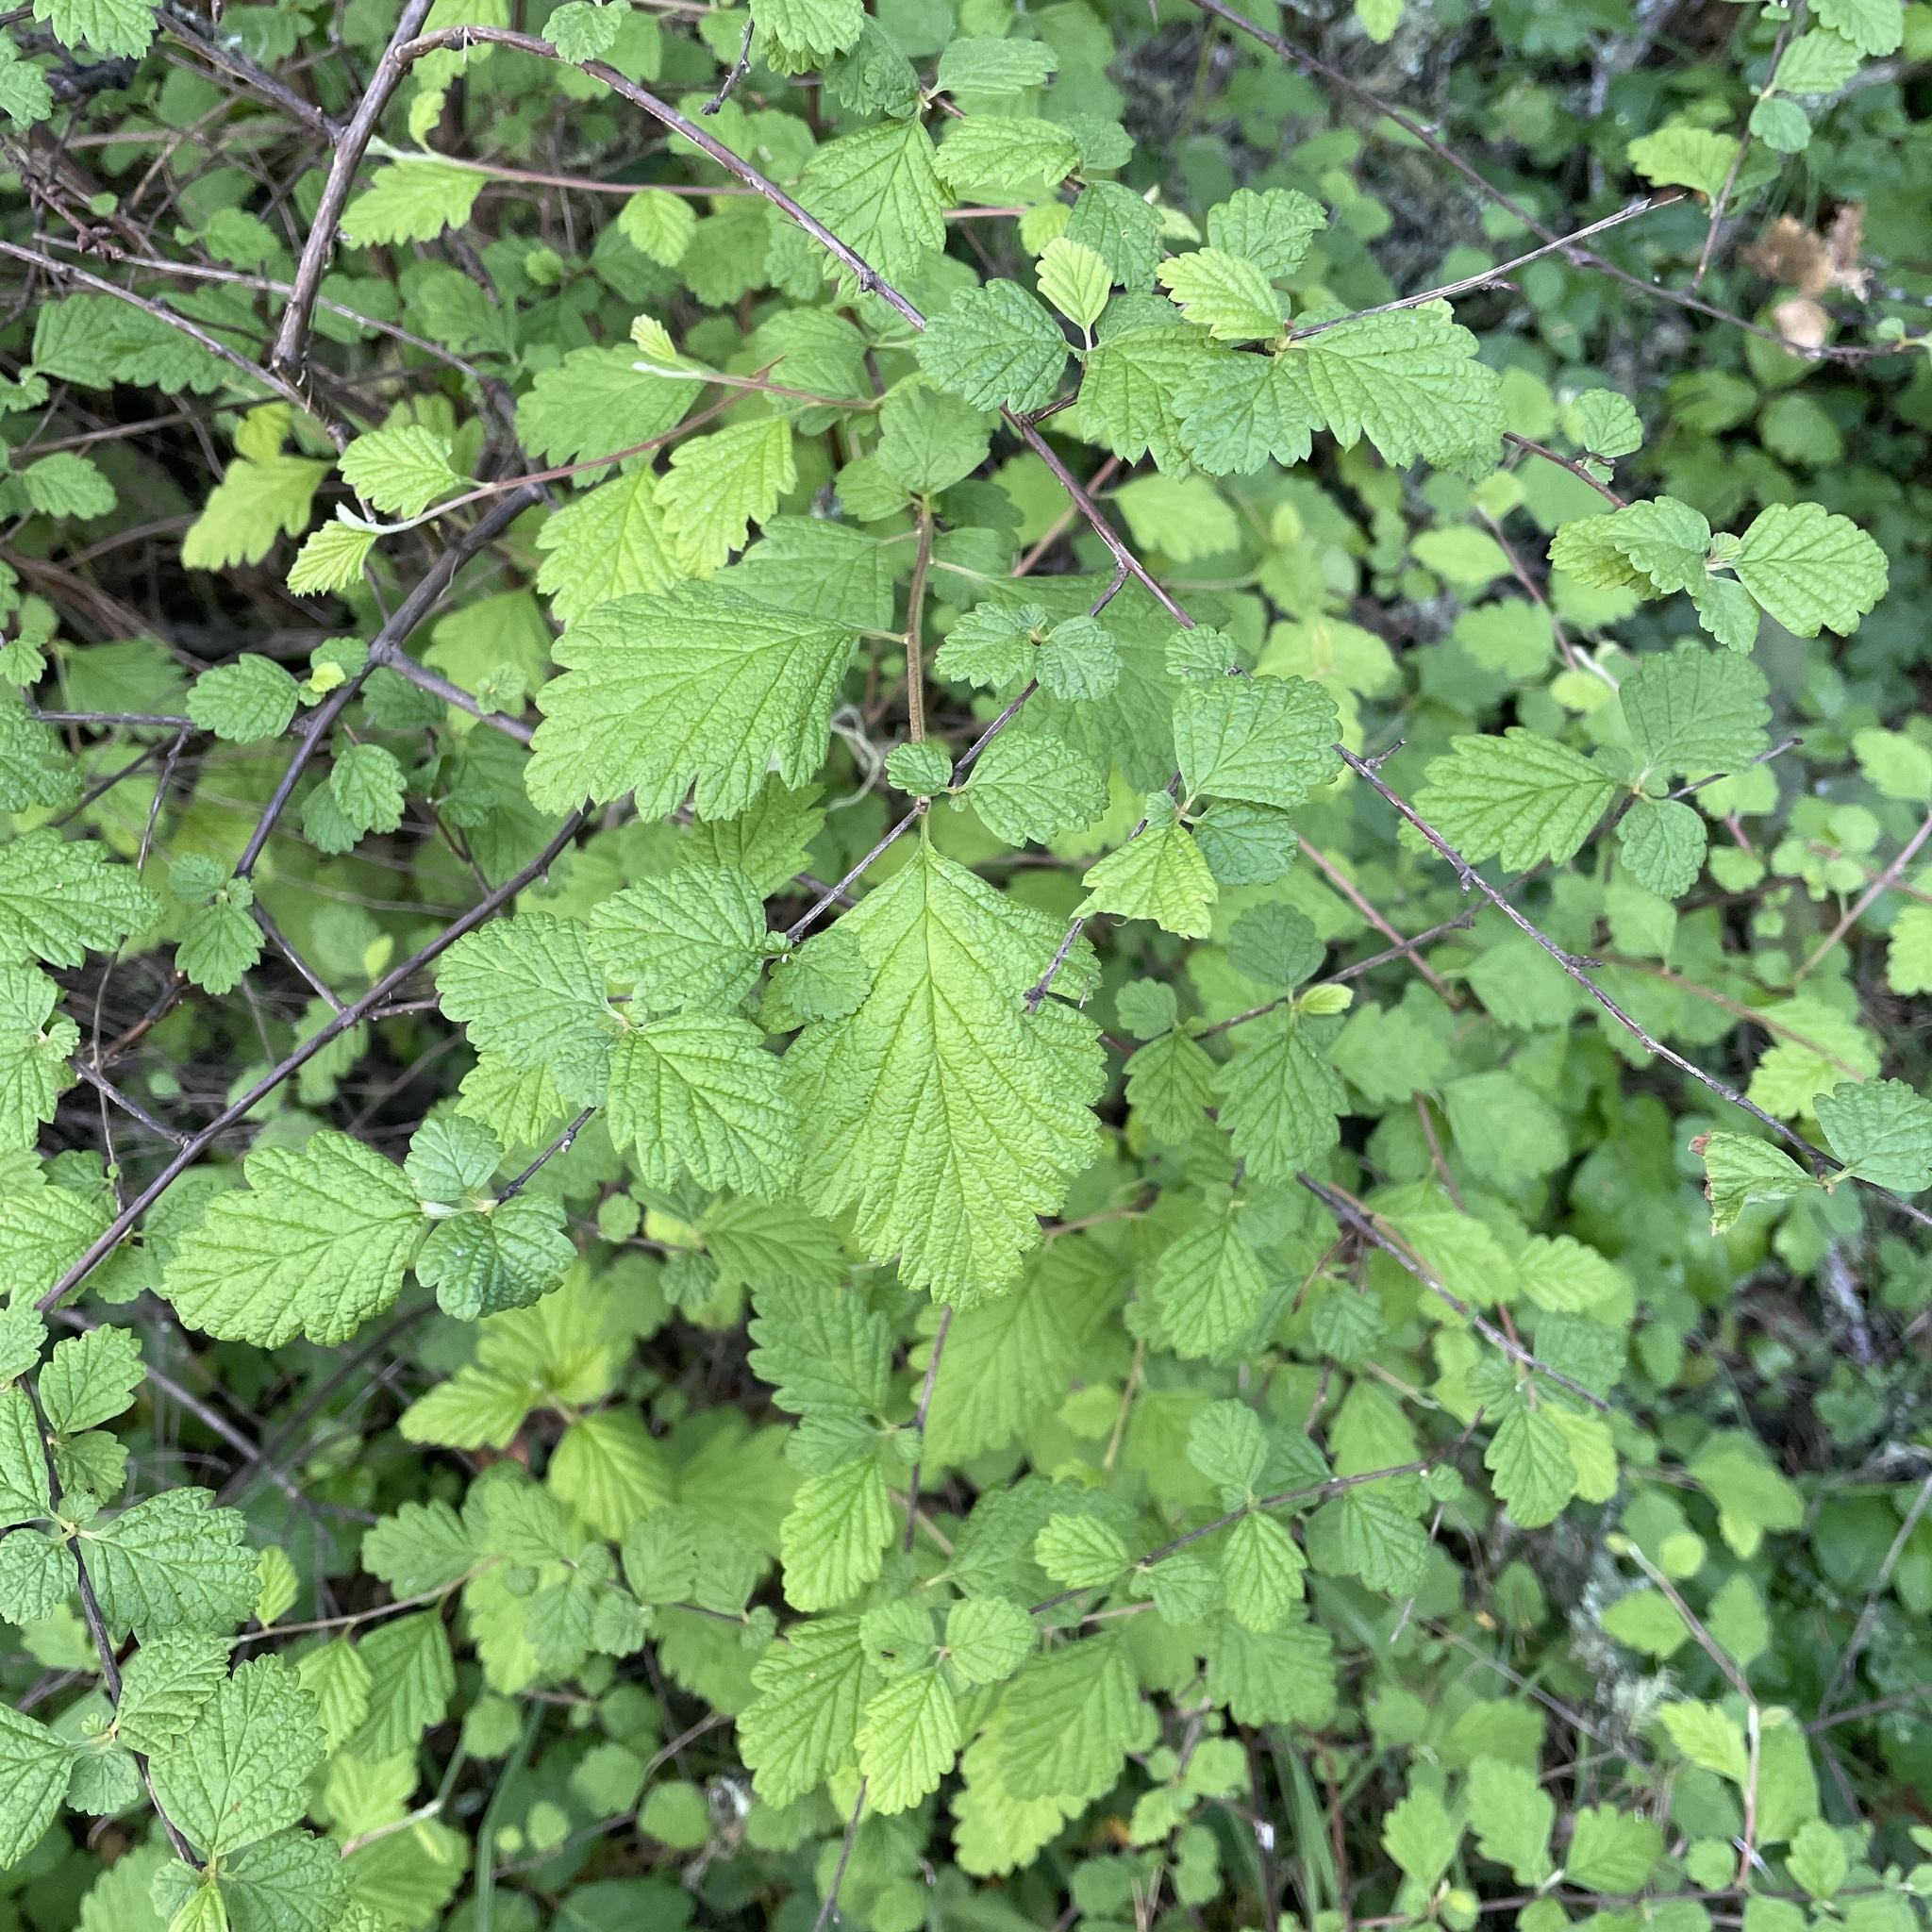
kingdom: Plantae
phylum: Tracheophyta
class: Magnoliopsida
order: Rosales
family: Rosaceae
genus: Holodiscus
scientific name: Holodiscus discolor
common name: Oceanspray
